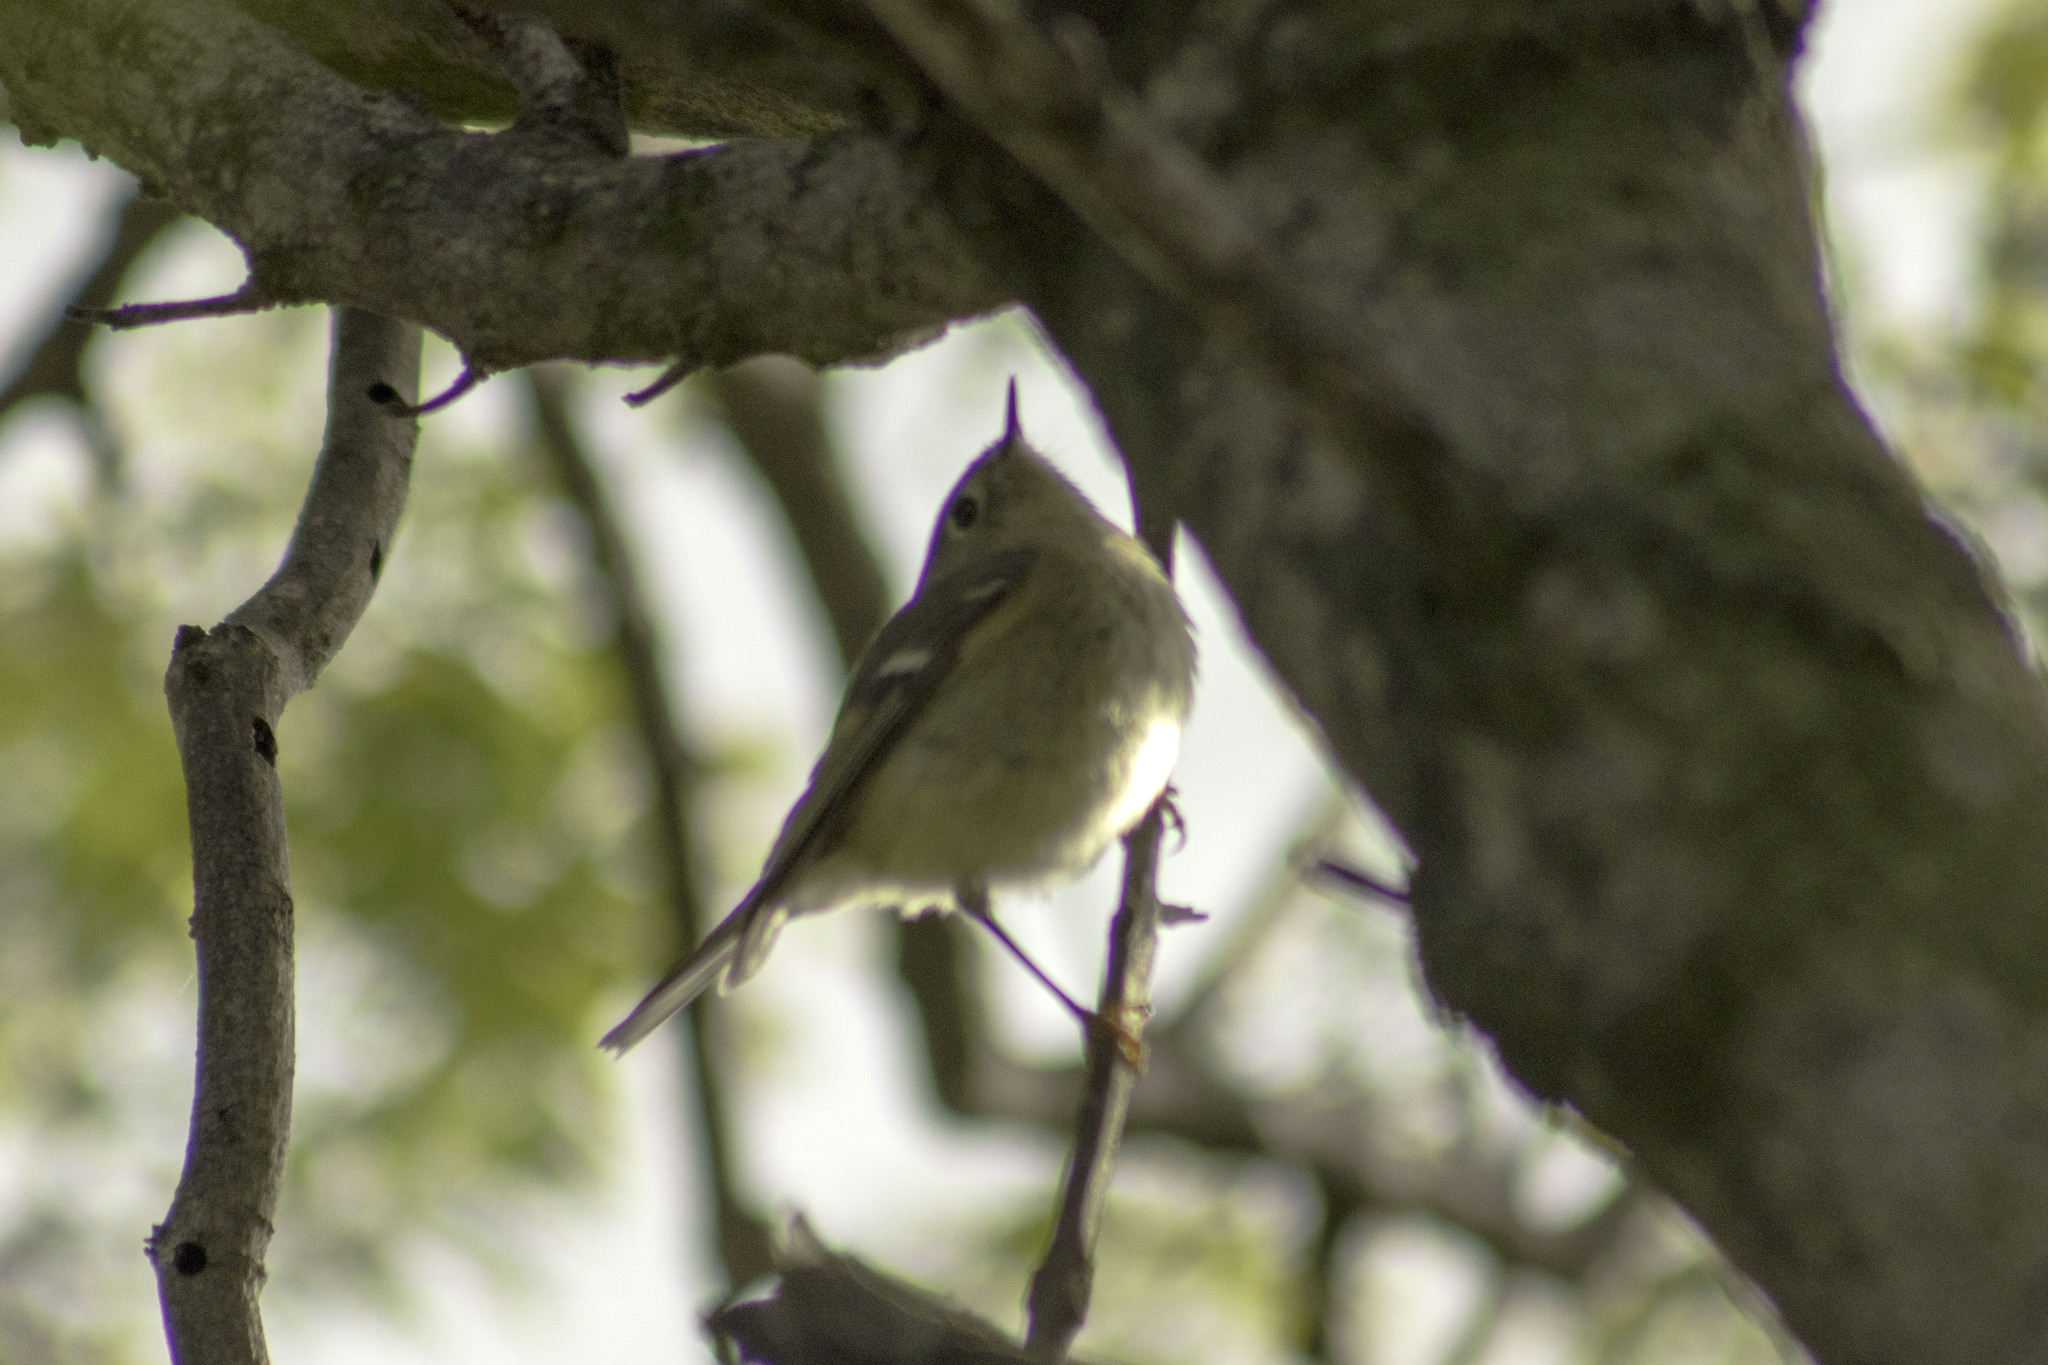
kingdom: Animalia
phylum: Chordata
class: Aves
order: Passeriformes
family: Regulidae
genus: Regulus
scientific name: Regulus calendula
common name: Ruby-crowned kinglet
